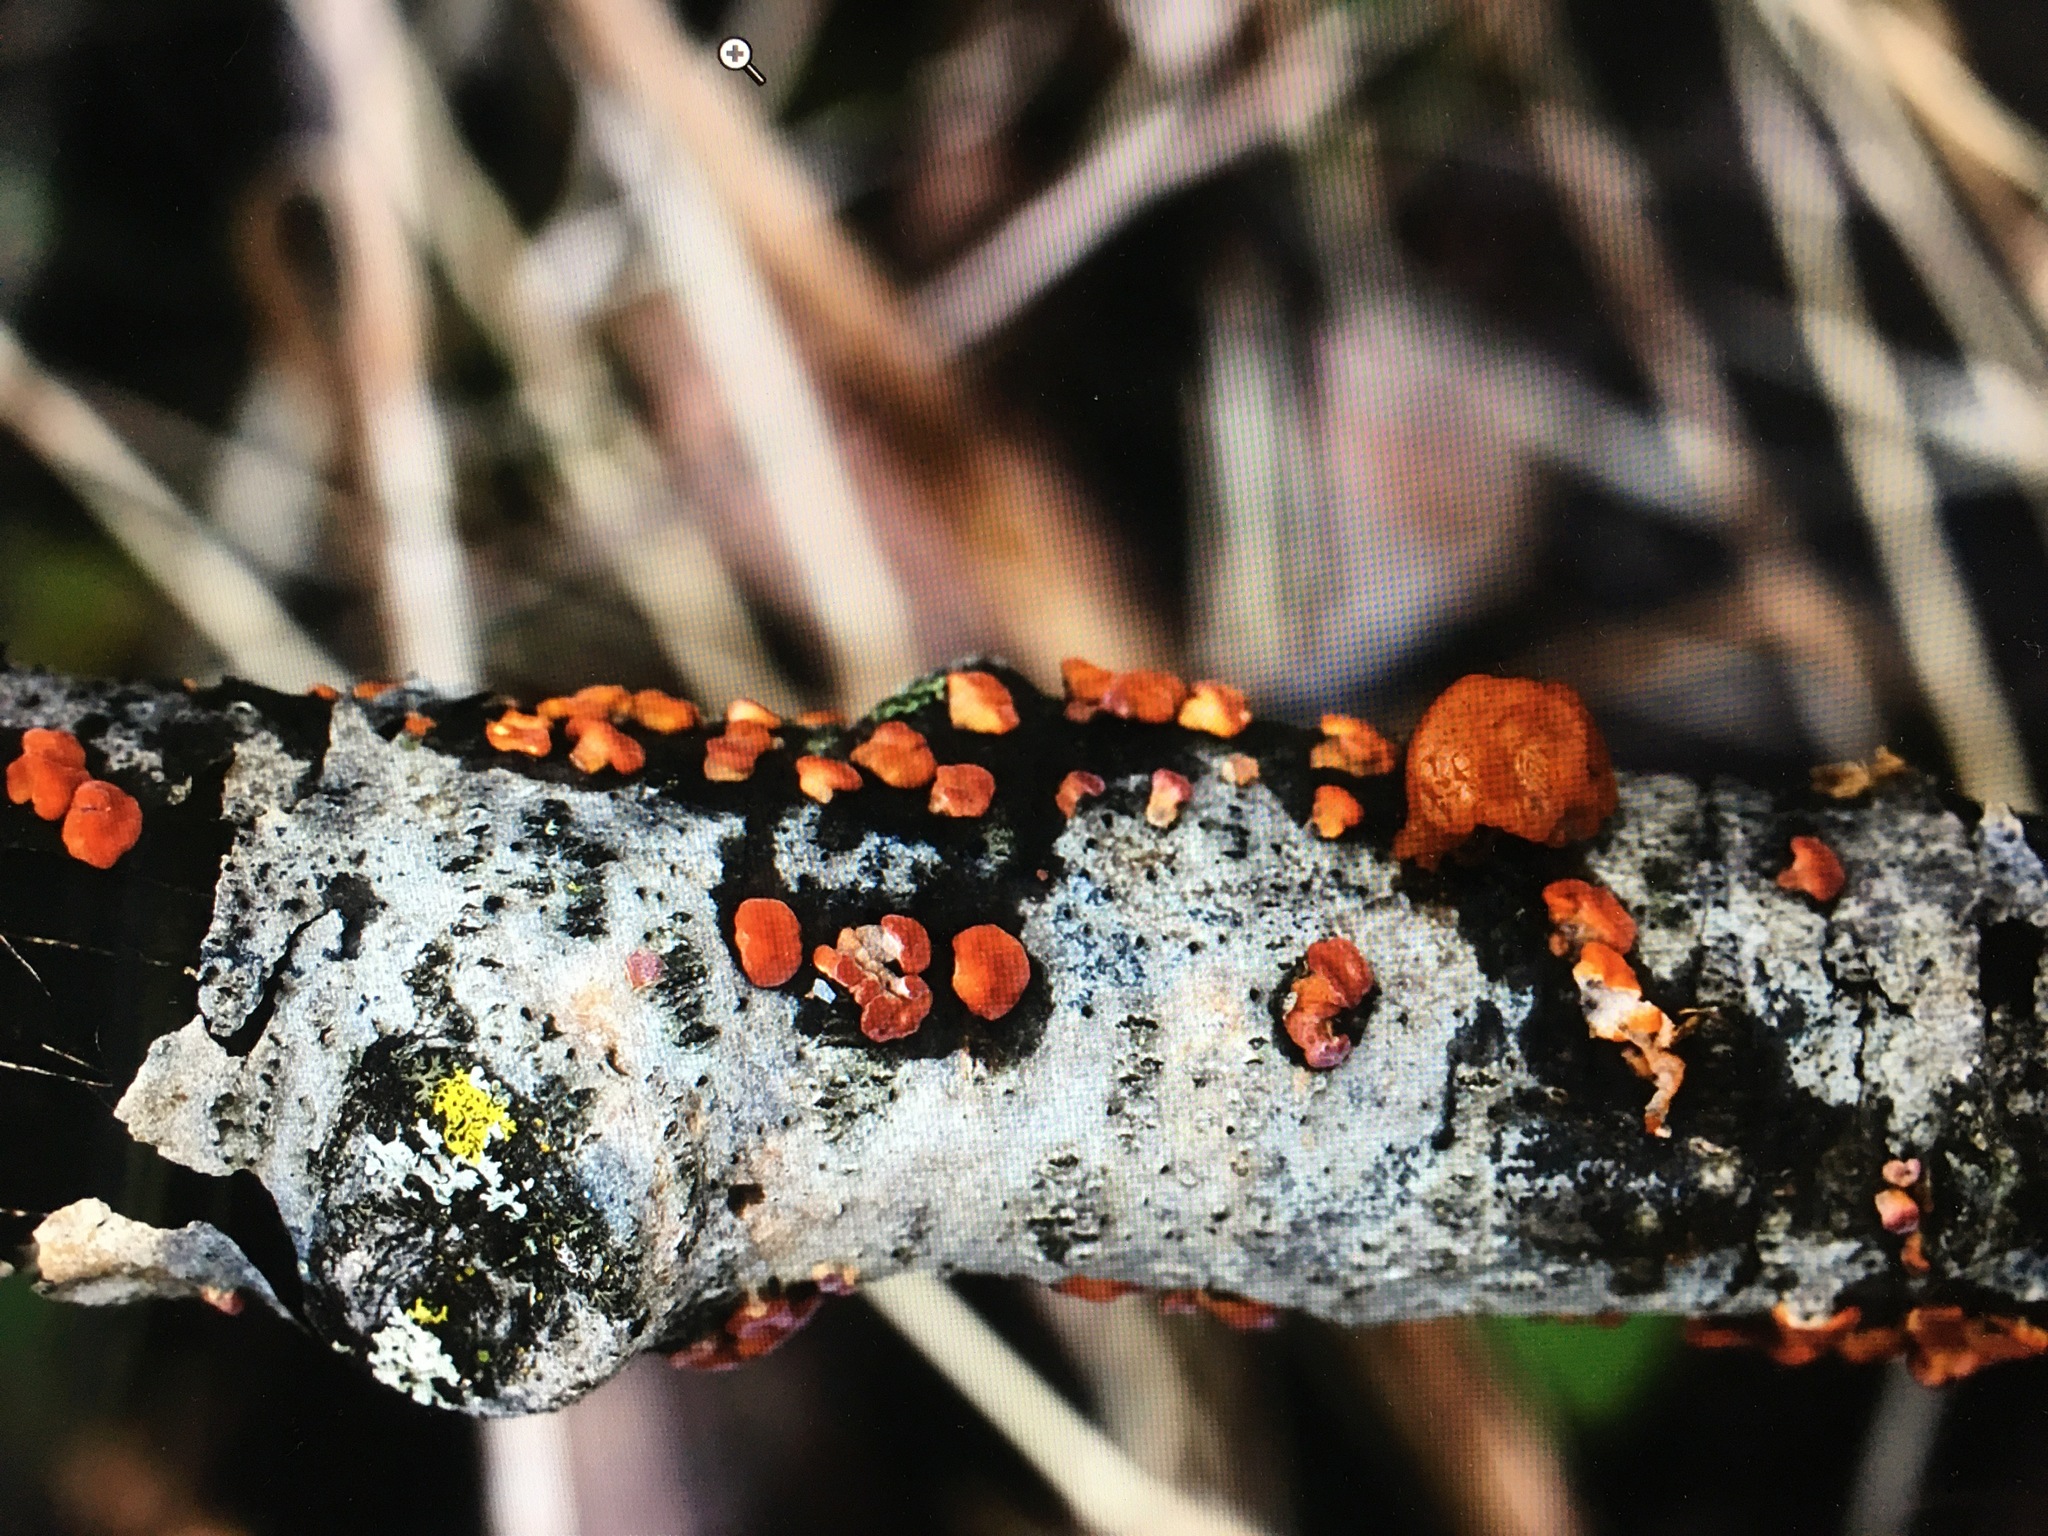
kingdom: Fungi
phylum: Basidiomycota
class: Agaricomycetes
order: Russulales
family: Peniophoraceae
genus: Peniophora
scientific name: Peniophora rufa
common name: Red tree brain fungus
